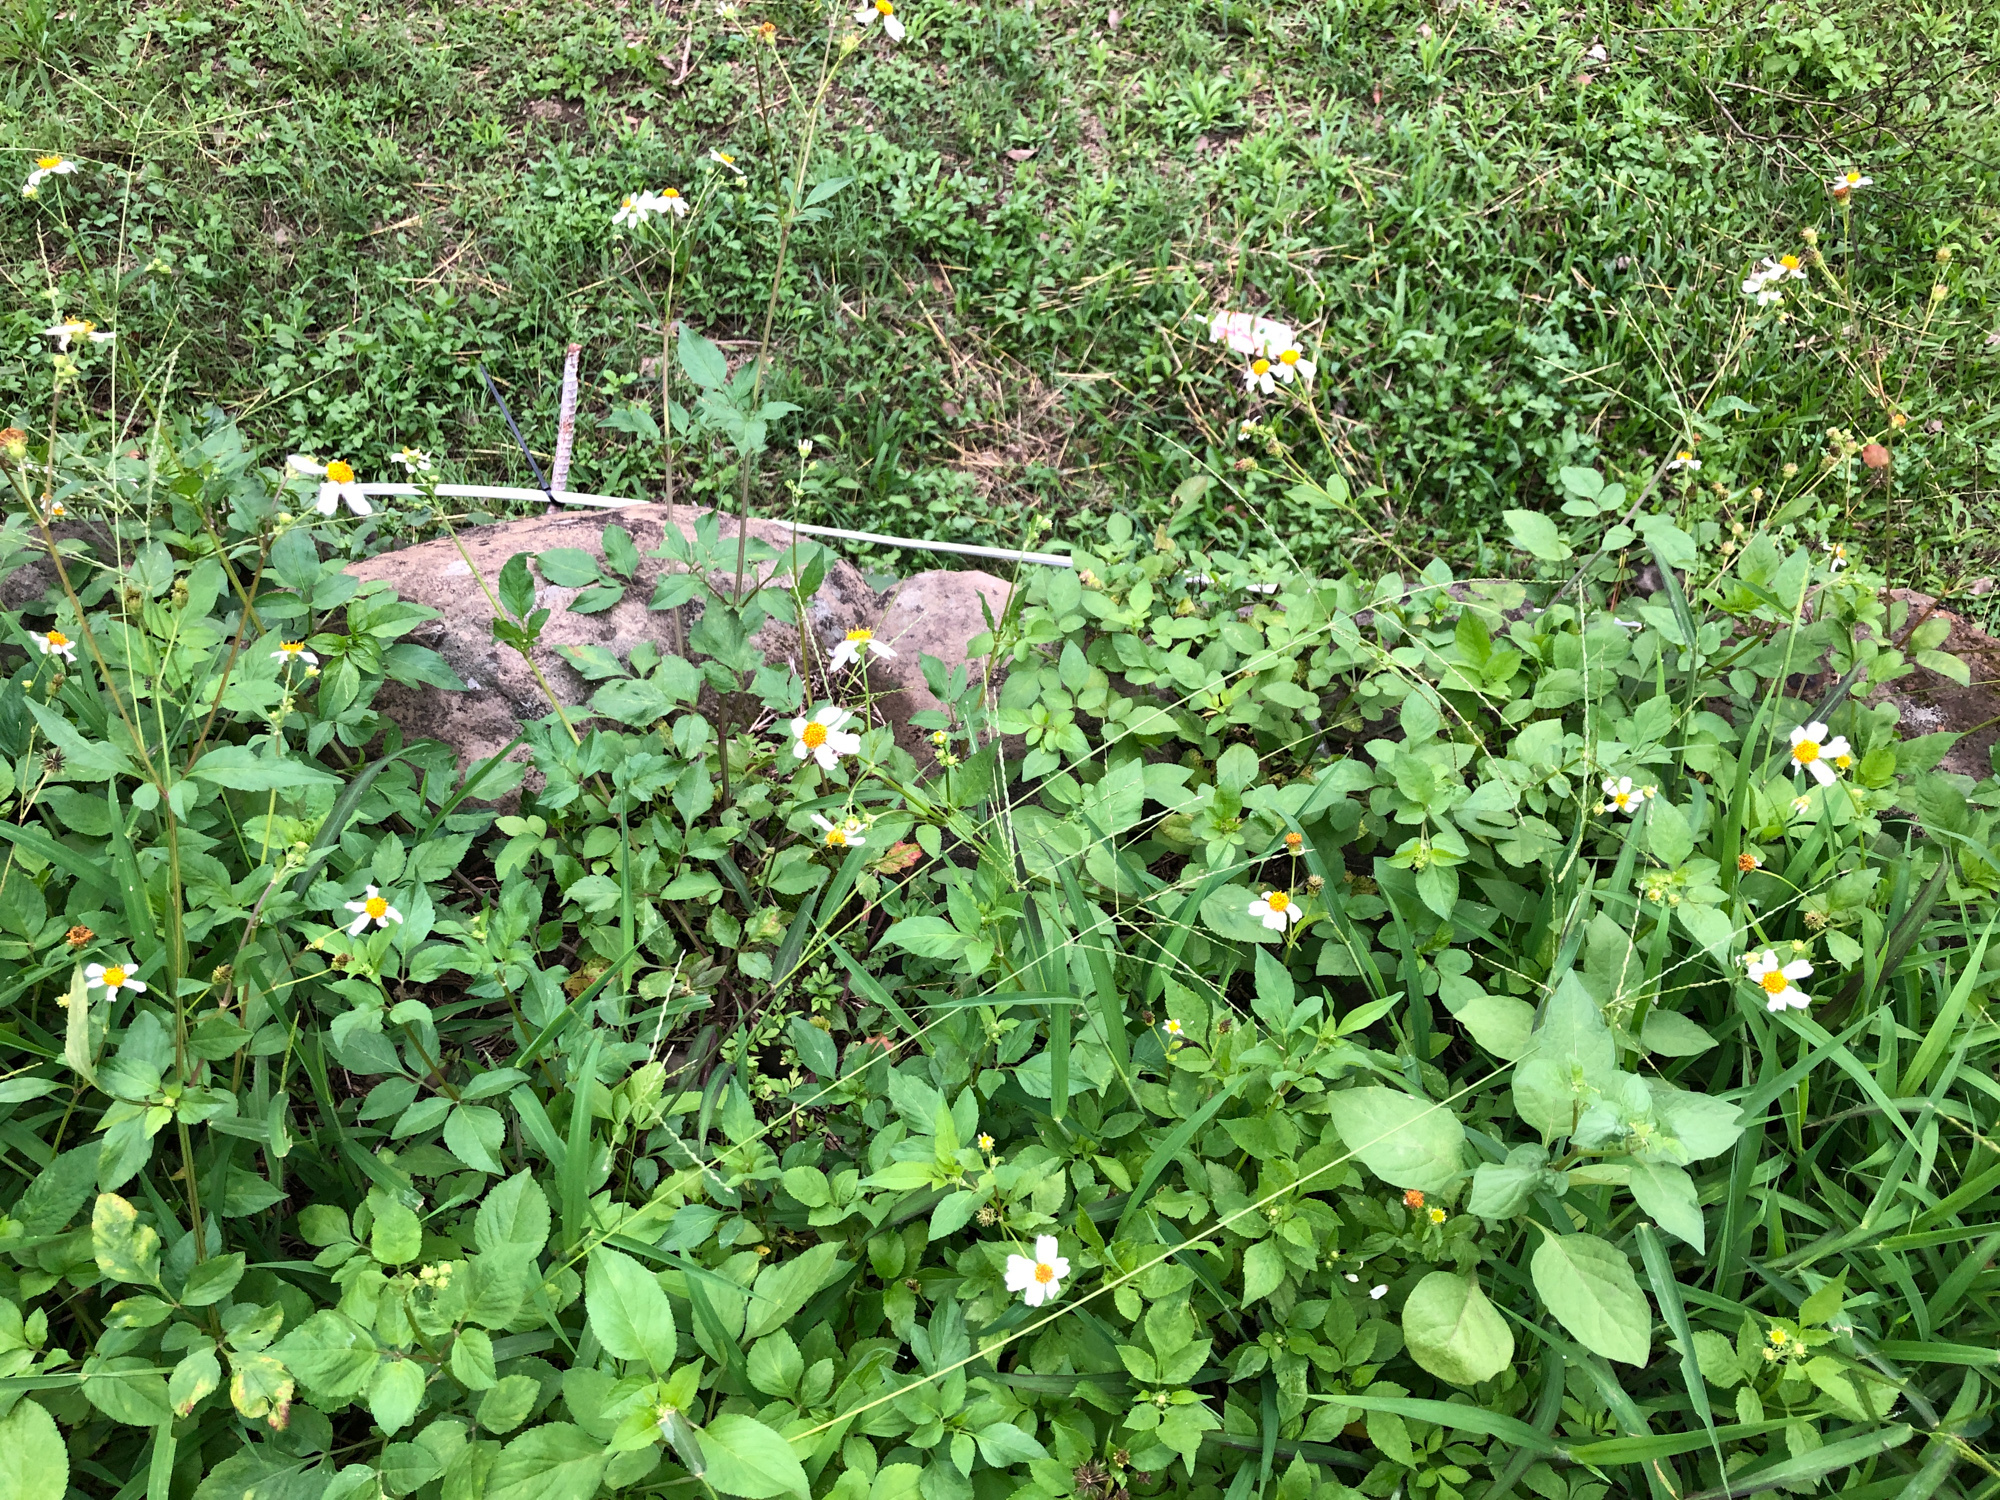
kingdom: Plantae
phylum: Tracheophyta
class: Liliopsida
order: Poales
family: Poaceae
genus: Digitaria
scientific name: Digitaria setigera
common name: East indian crabgrass
